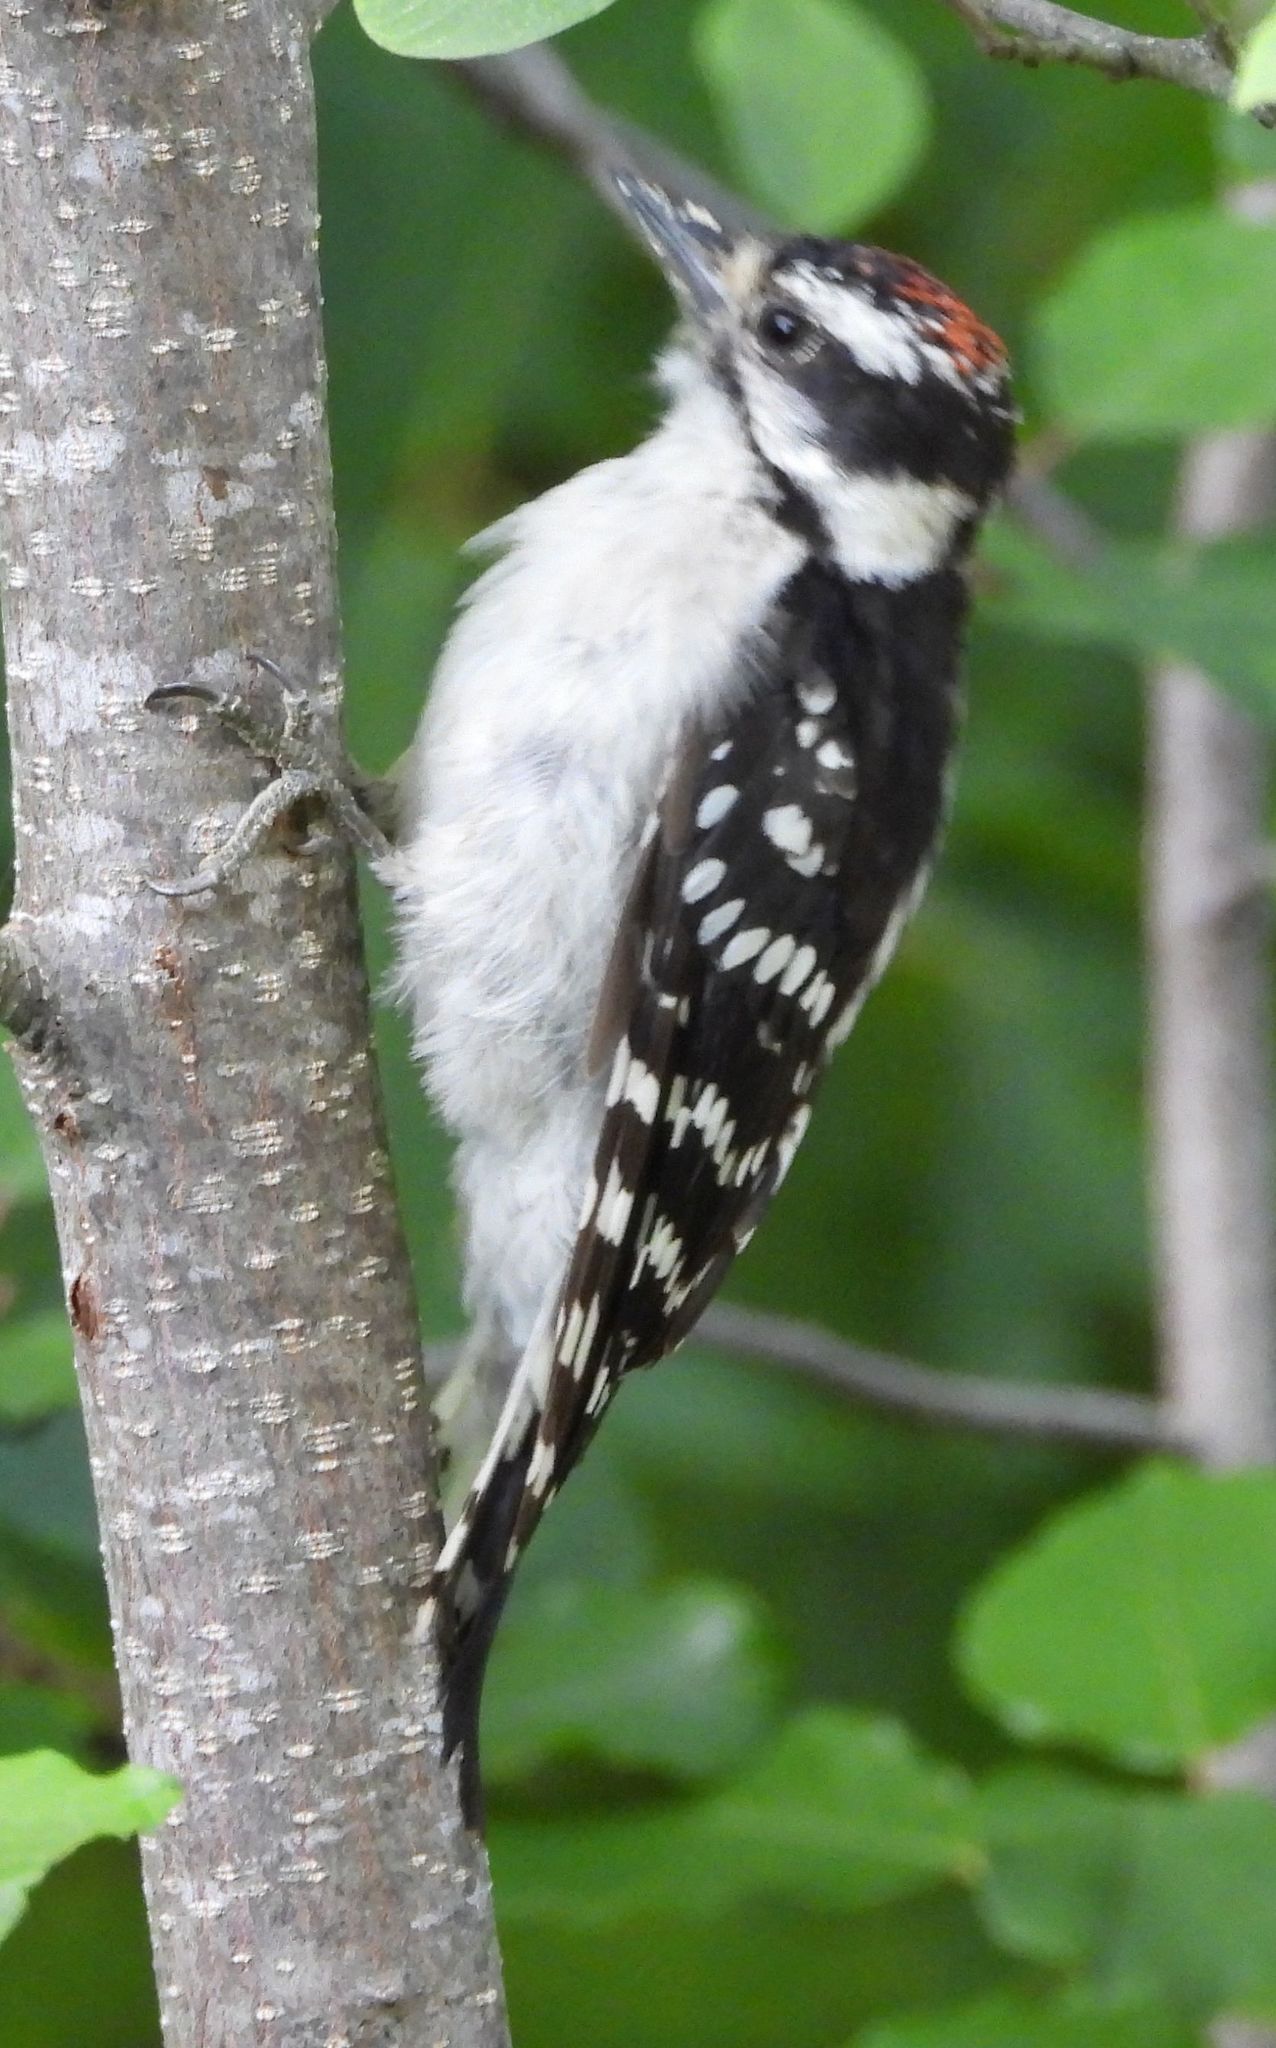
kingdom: Animalia
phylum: Chordata
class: Aves
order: Piciformes
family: Picidae
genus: Dryobates
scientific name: Dryobates pubescens
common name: Downy woodpecker
